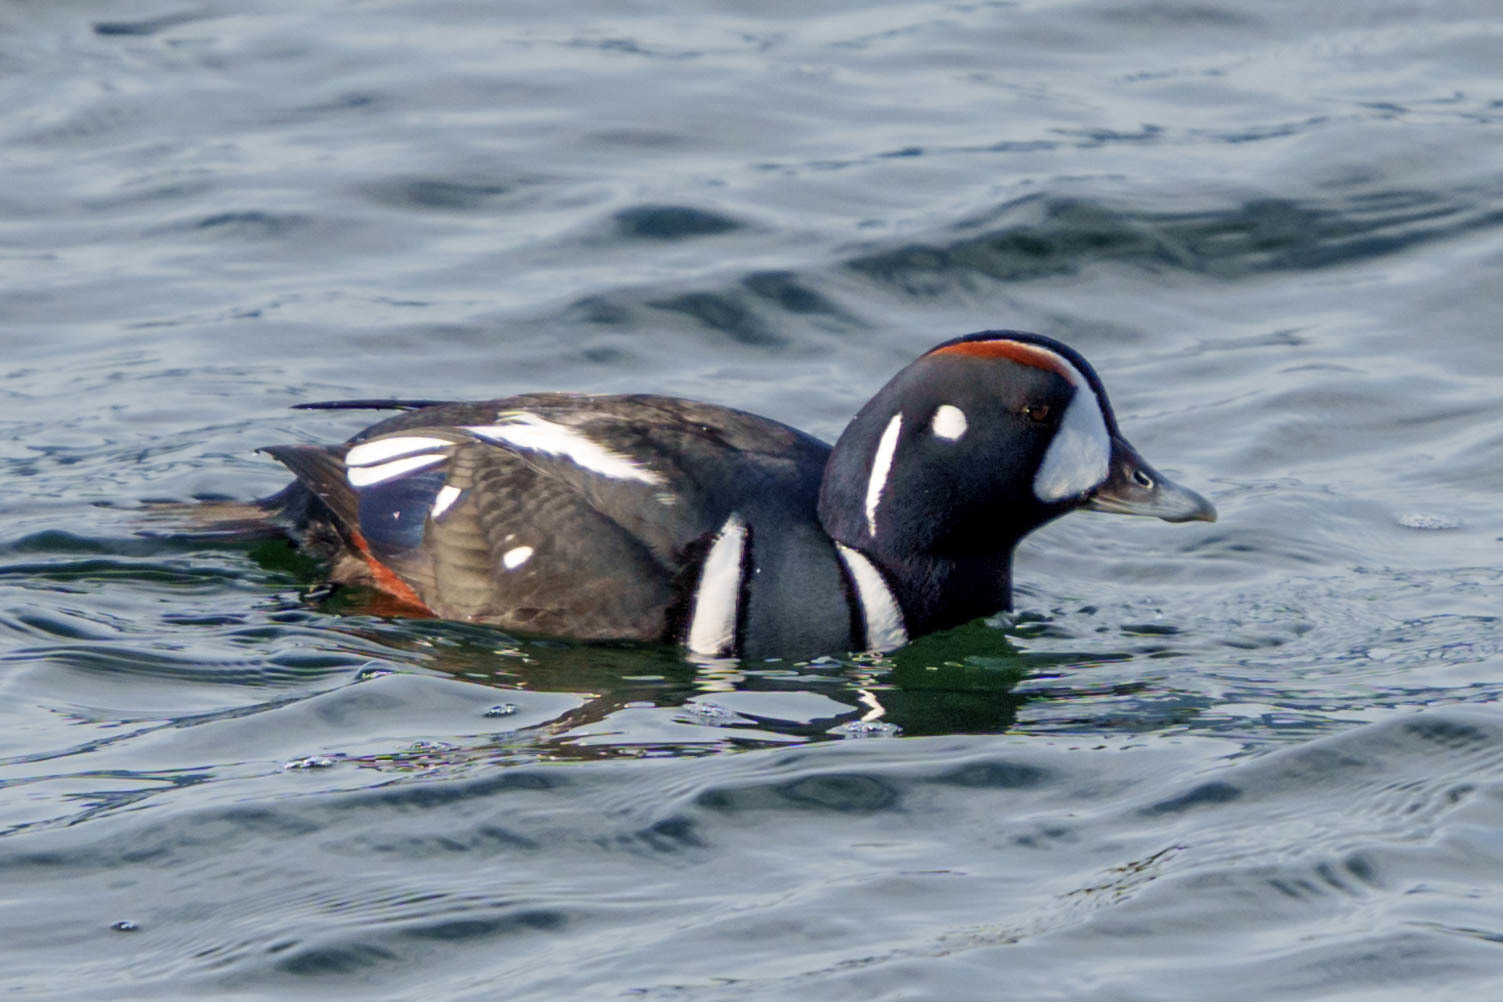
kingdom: Animalia
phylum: Chordata
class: Aves
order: Anseriformes
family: Anatidae
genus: Histrionicus
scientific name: Histrionicus histrionicus
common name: Harlequin duck
